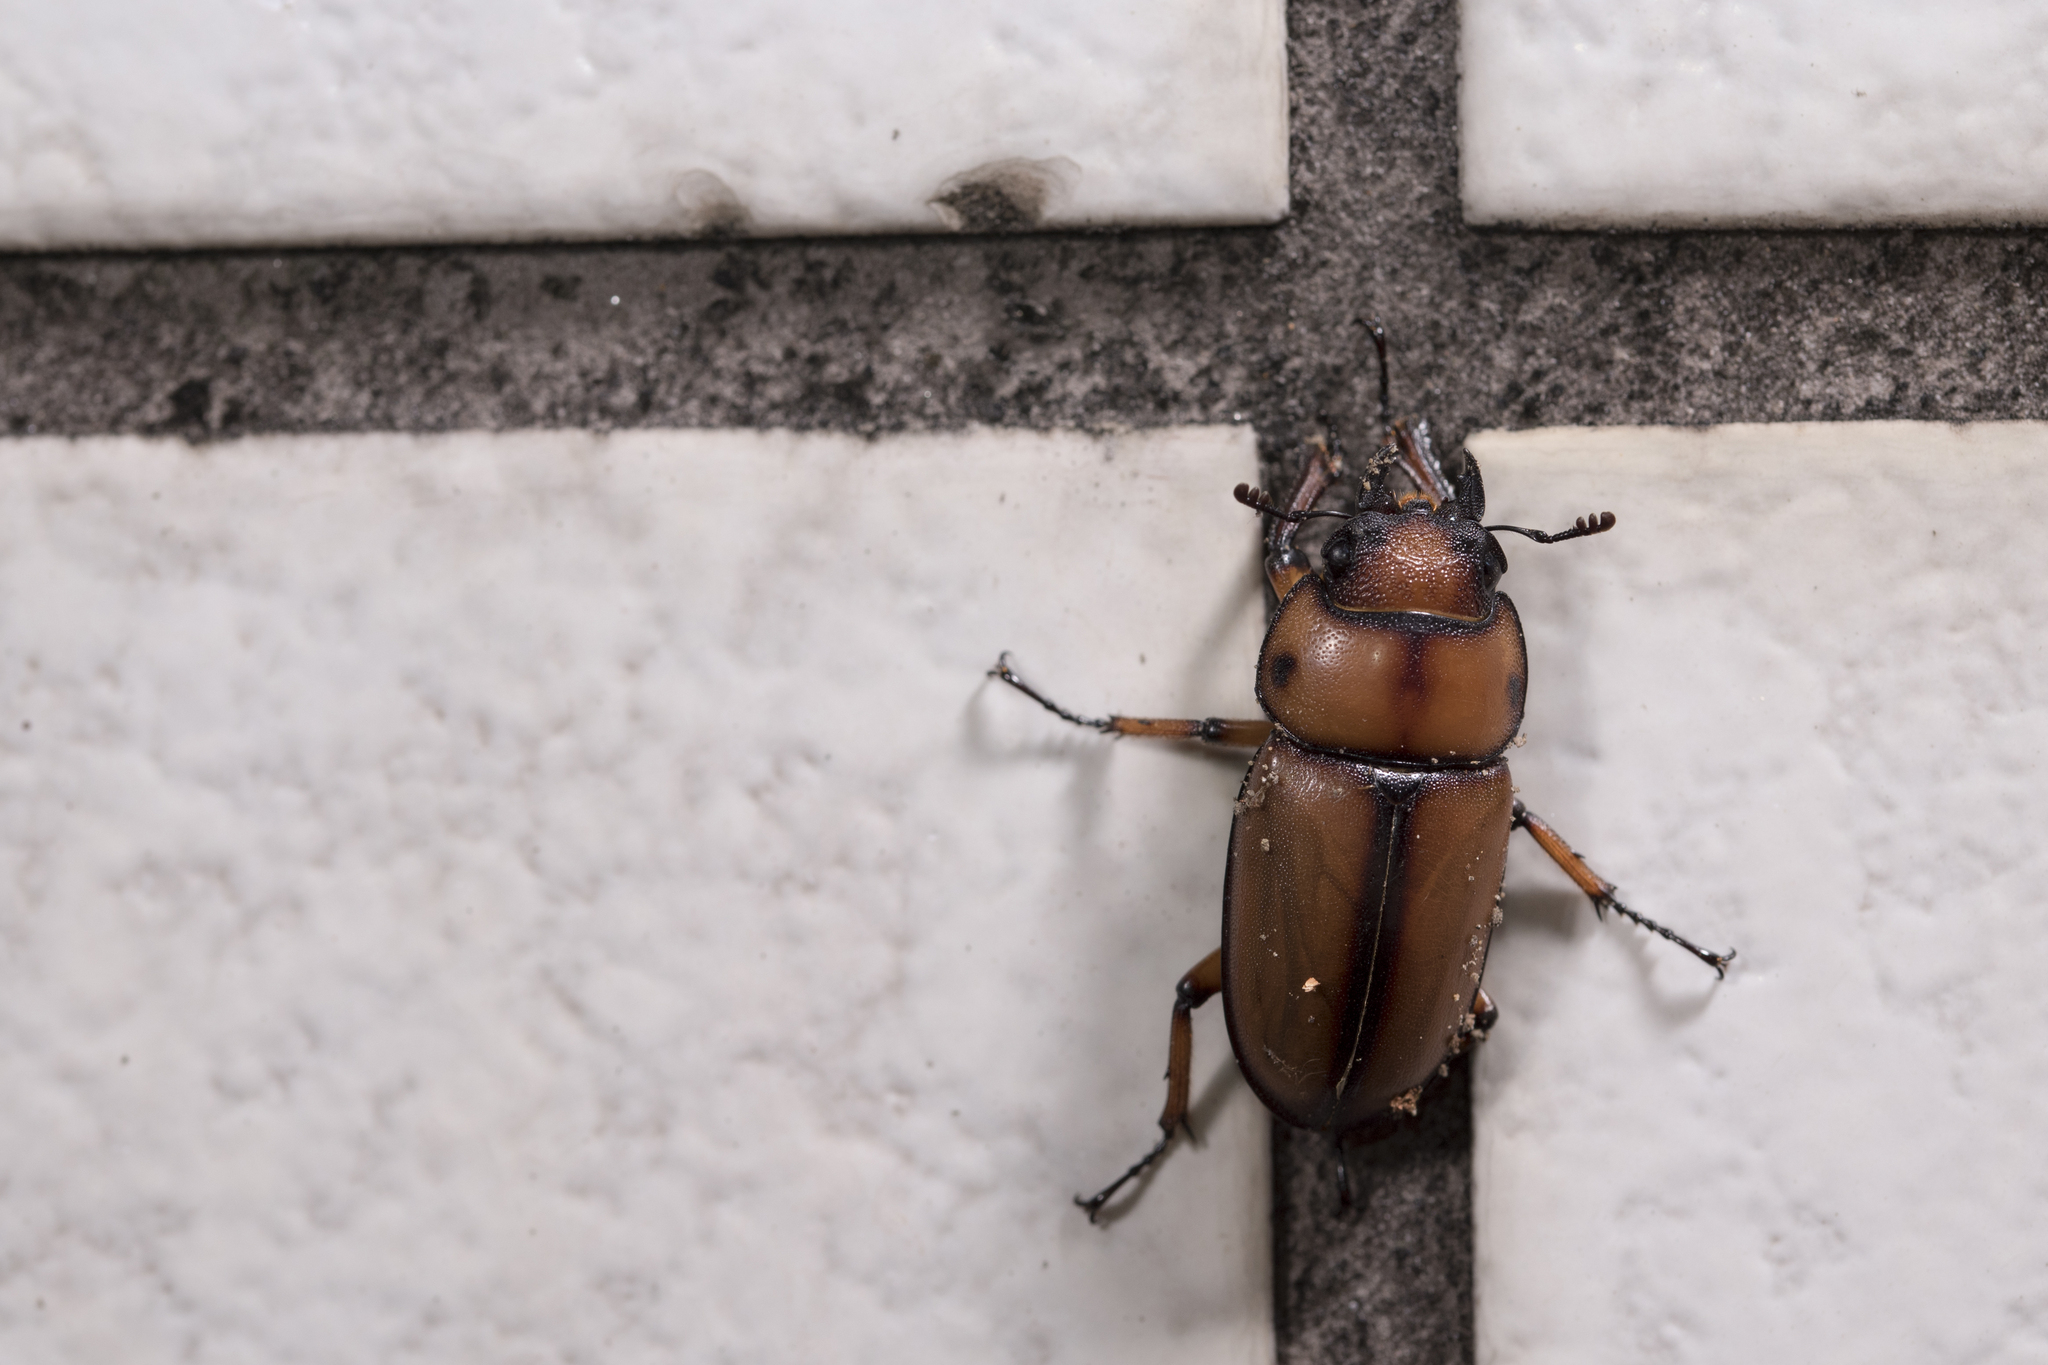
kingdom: Animalia
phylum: Arthropoda
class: Insecta
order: Coleoptera
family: Lucanidae
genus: Prosopocoilus
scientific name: Prosopocoilus astacoides
